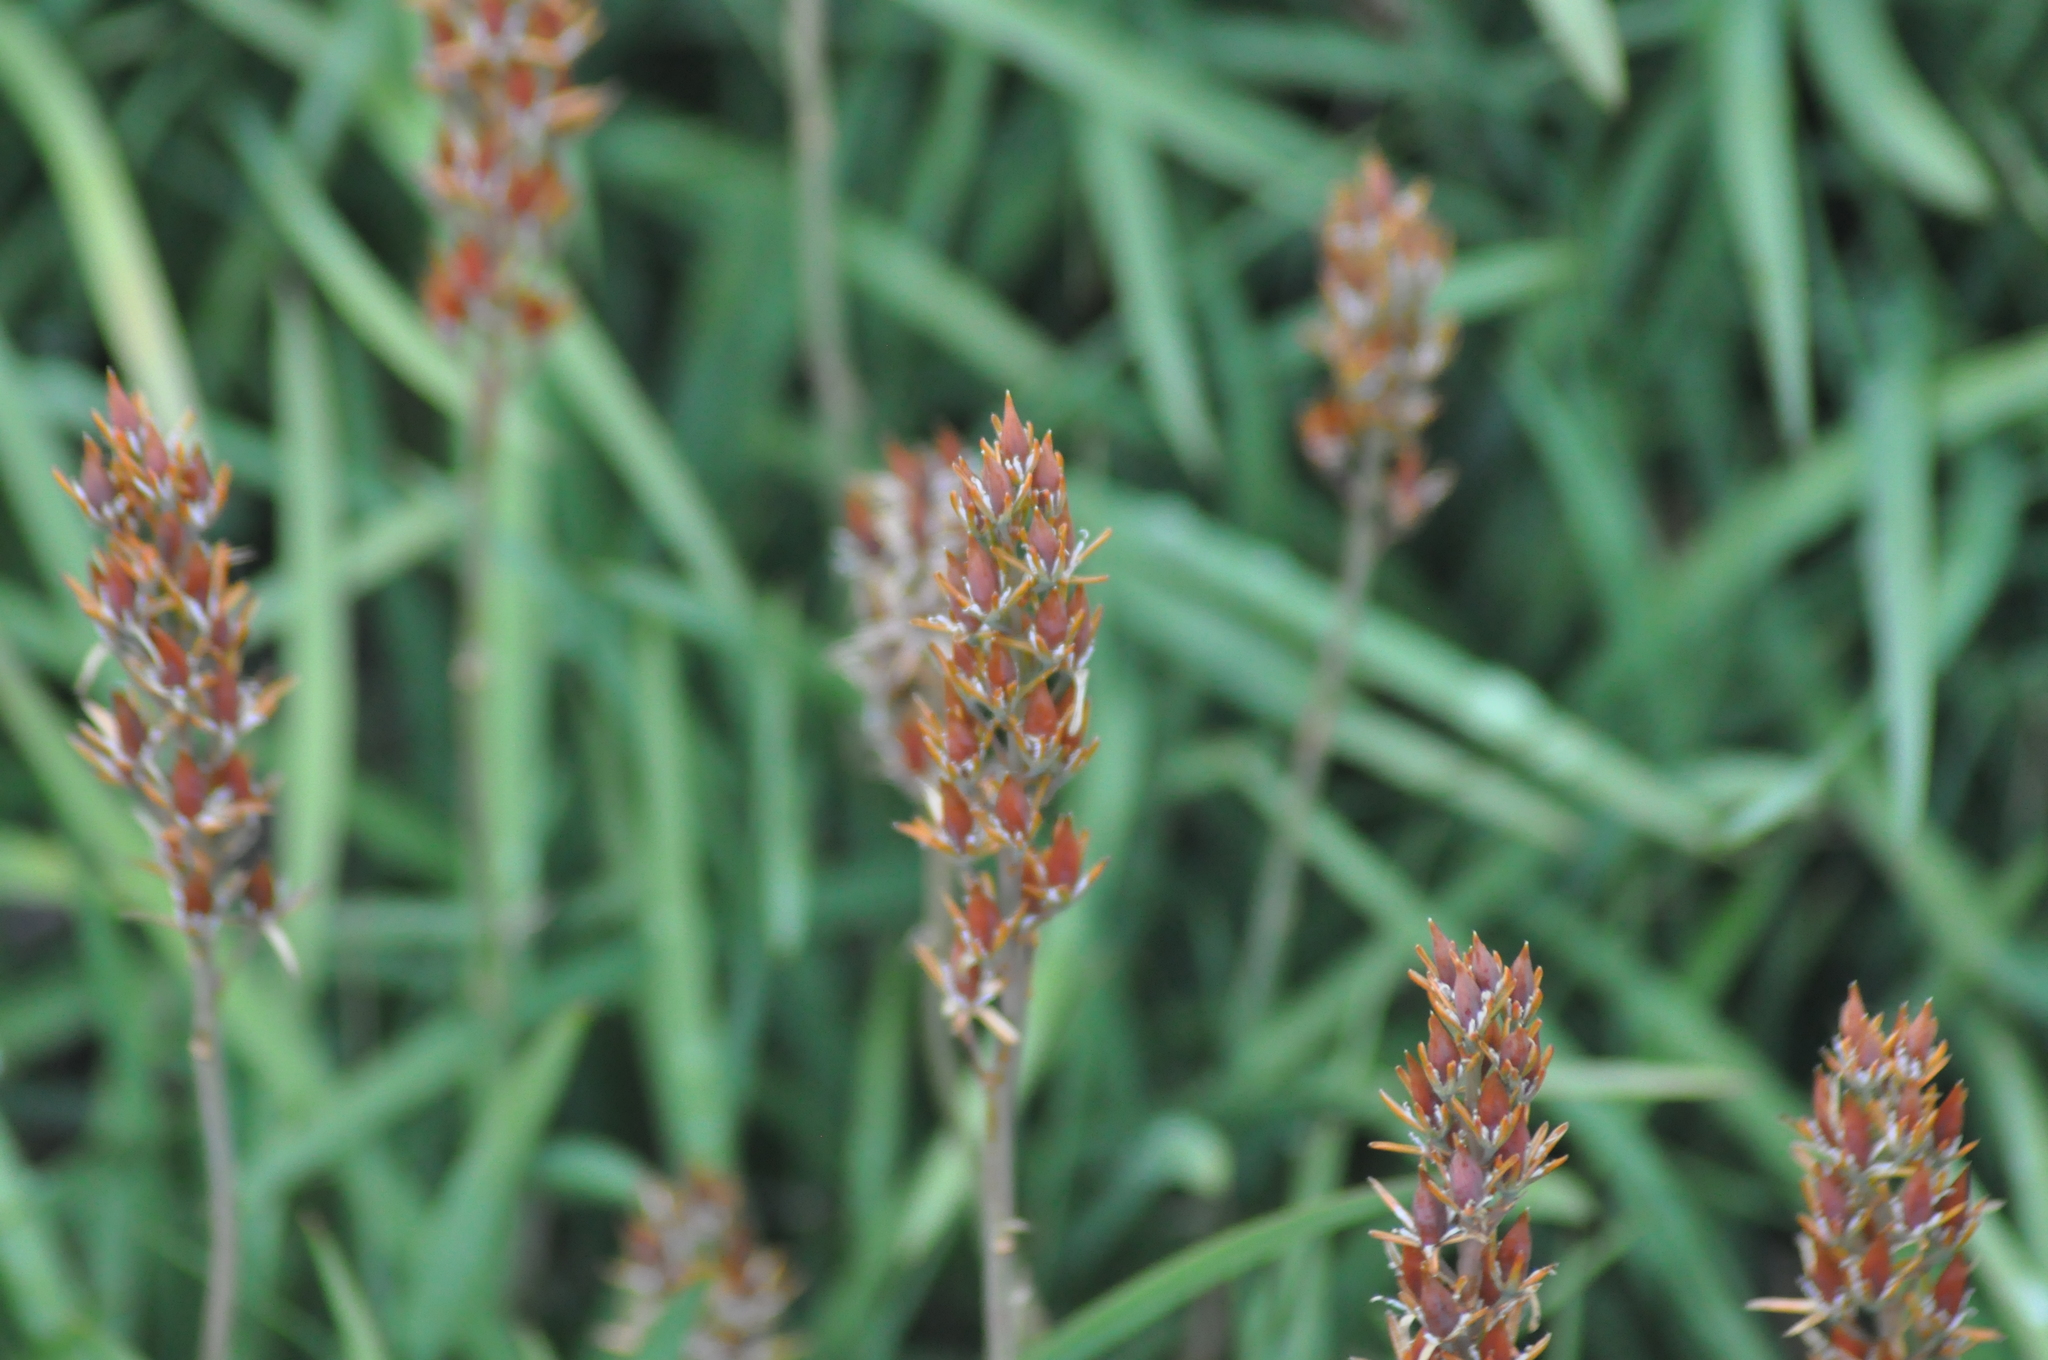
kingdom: Plantae
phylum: Tracheophyta
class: Liliopsida
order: Dioscoreales
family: Nartheciaceae
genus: Narthecium
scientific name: Narthecium ossifragum
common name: Bog asphodel
